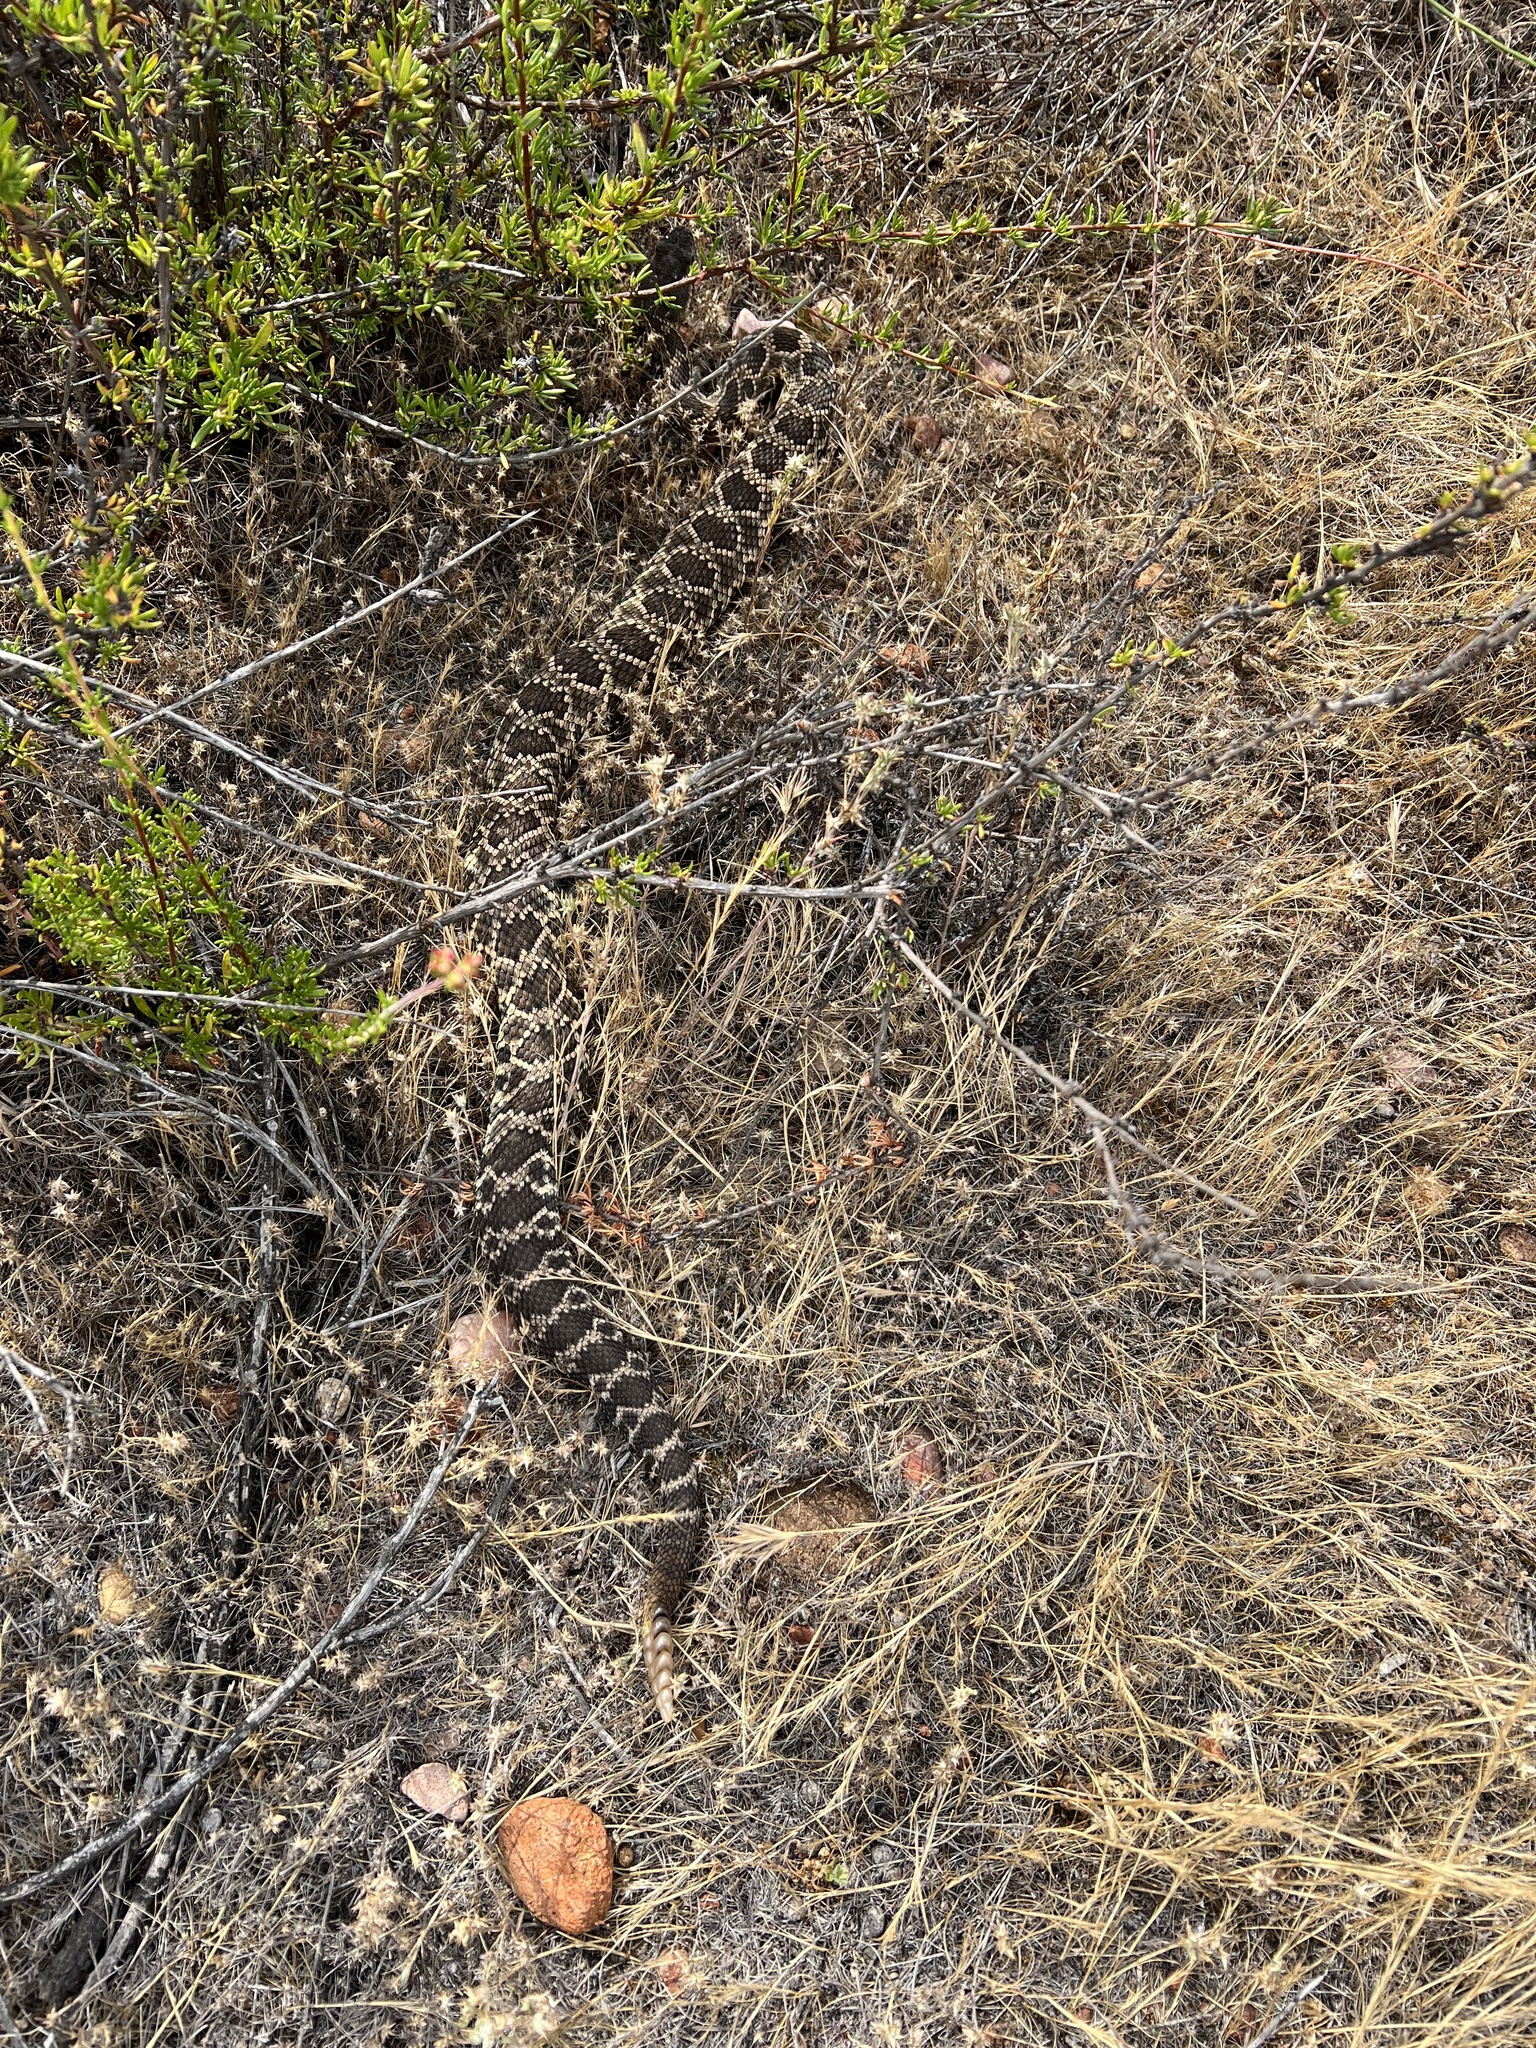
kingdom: Animalia
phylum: Chordata
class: Squamata
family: Viperidae
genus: Crotalus
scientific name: Crotalus oreganus
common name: Abyssus
